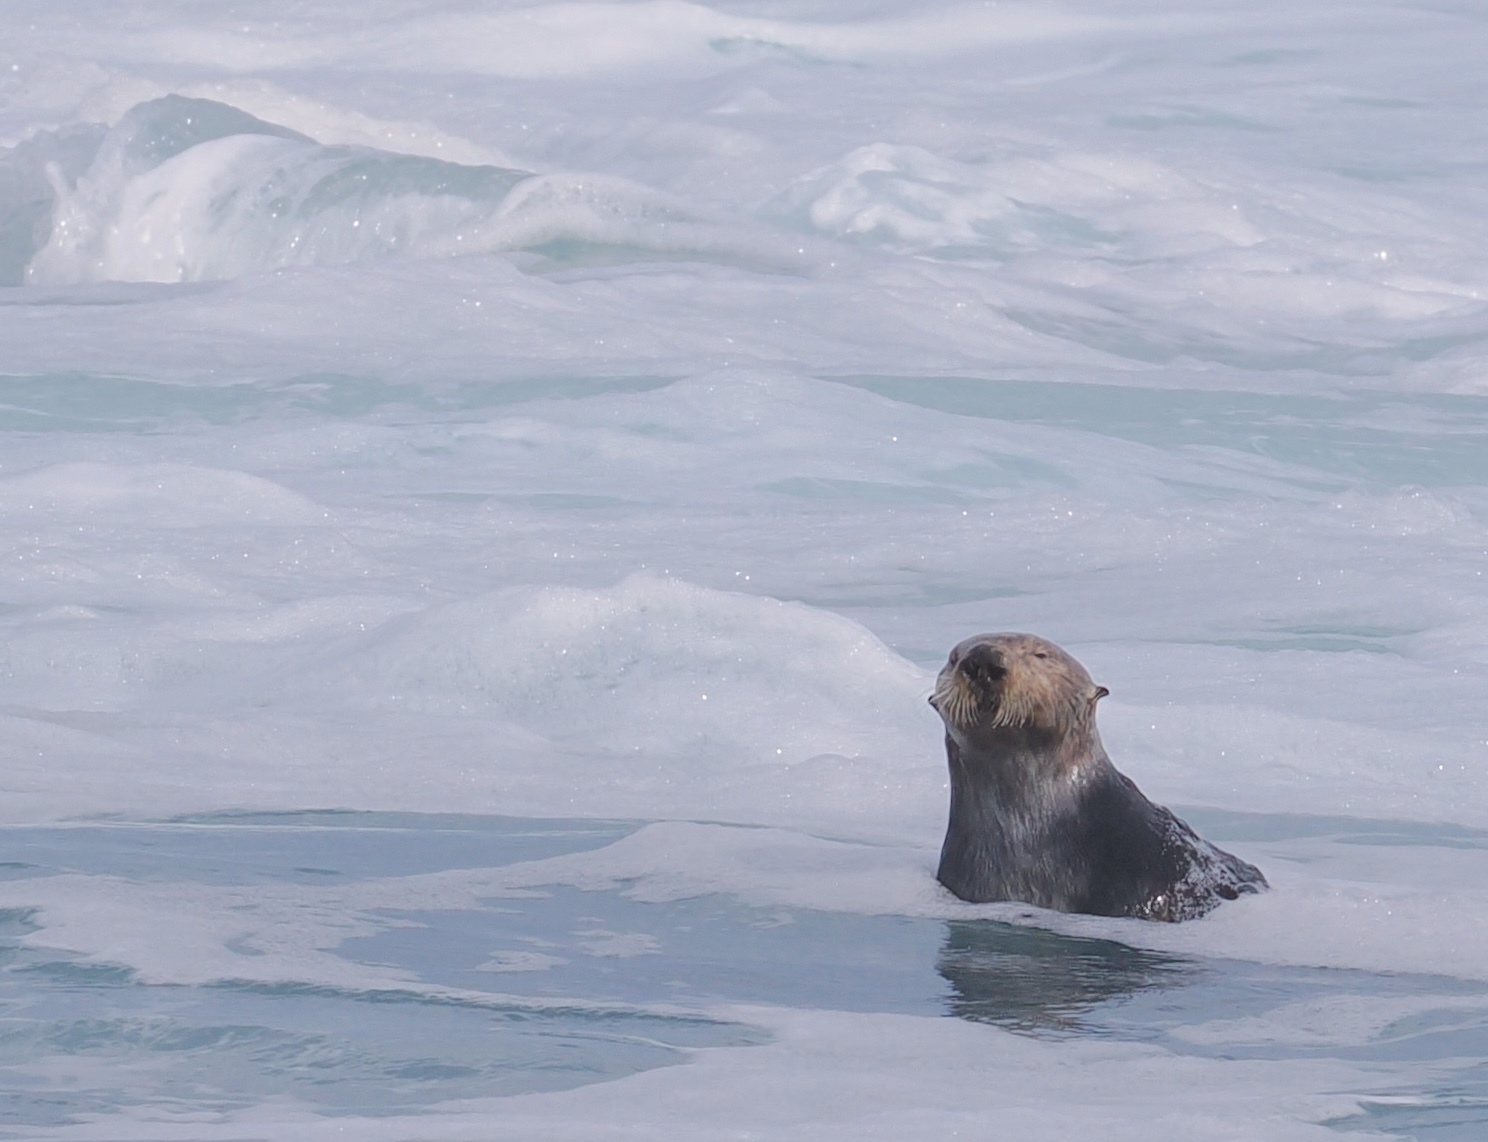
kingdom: Animalia
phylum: Chordata
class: Mammalia
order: Carnivora
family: Mustelidae
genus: Enhydra
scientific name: Enhydra lutris
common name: Sea otter
